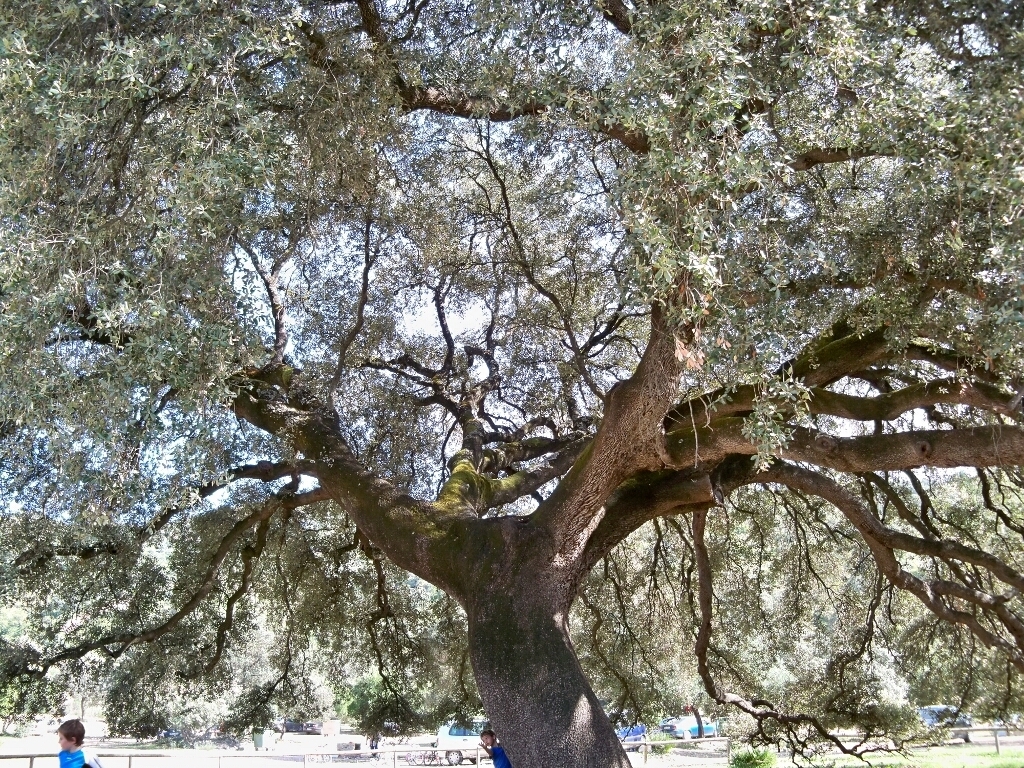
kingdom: Plantae
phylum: Tracheophyta
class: Magnoliopsida
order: Fagales
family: Fagaceae
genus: Quercus
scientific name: Quercus rotundifolia
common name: Holm oak
